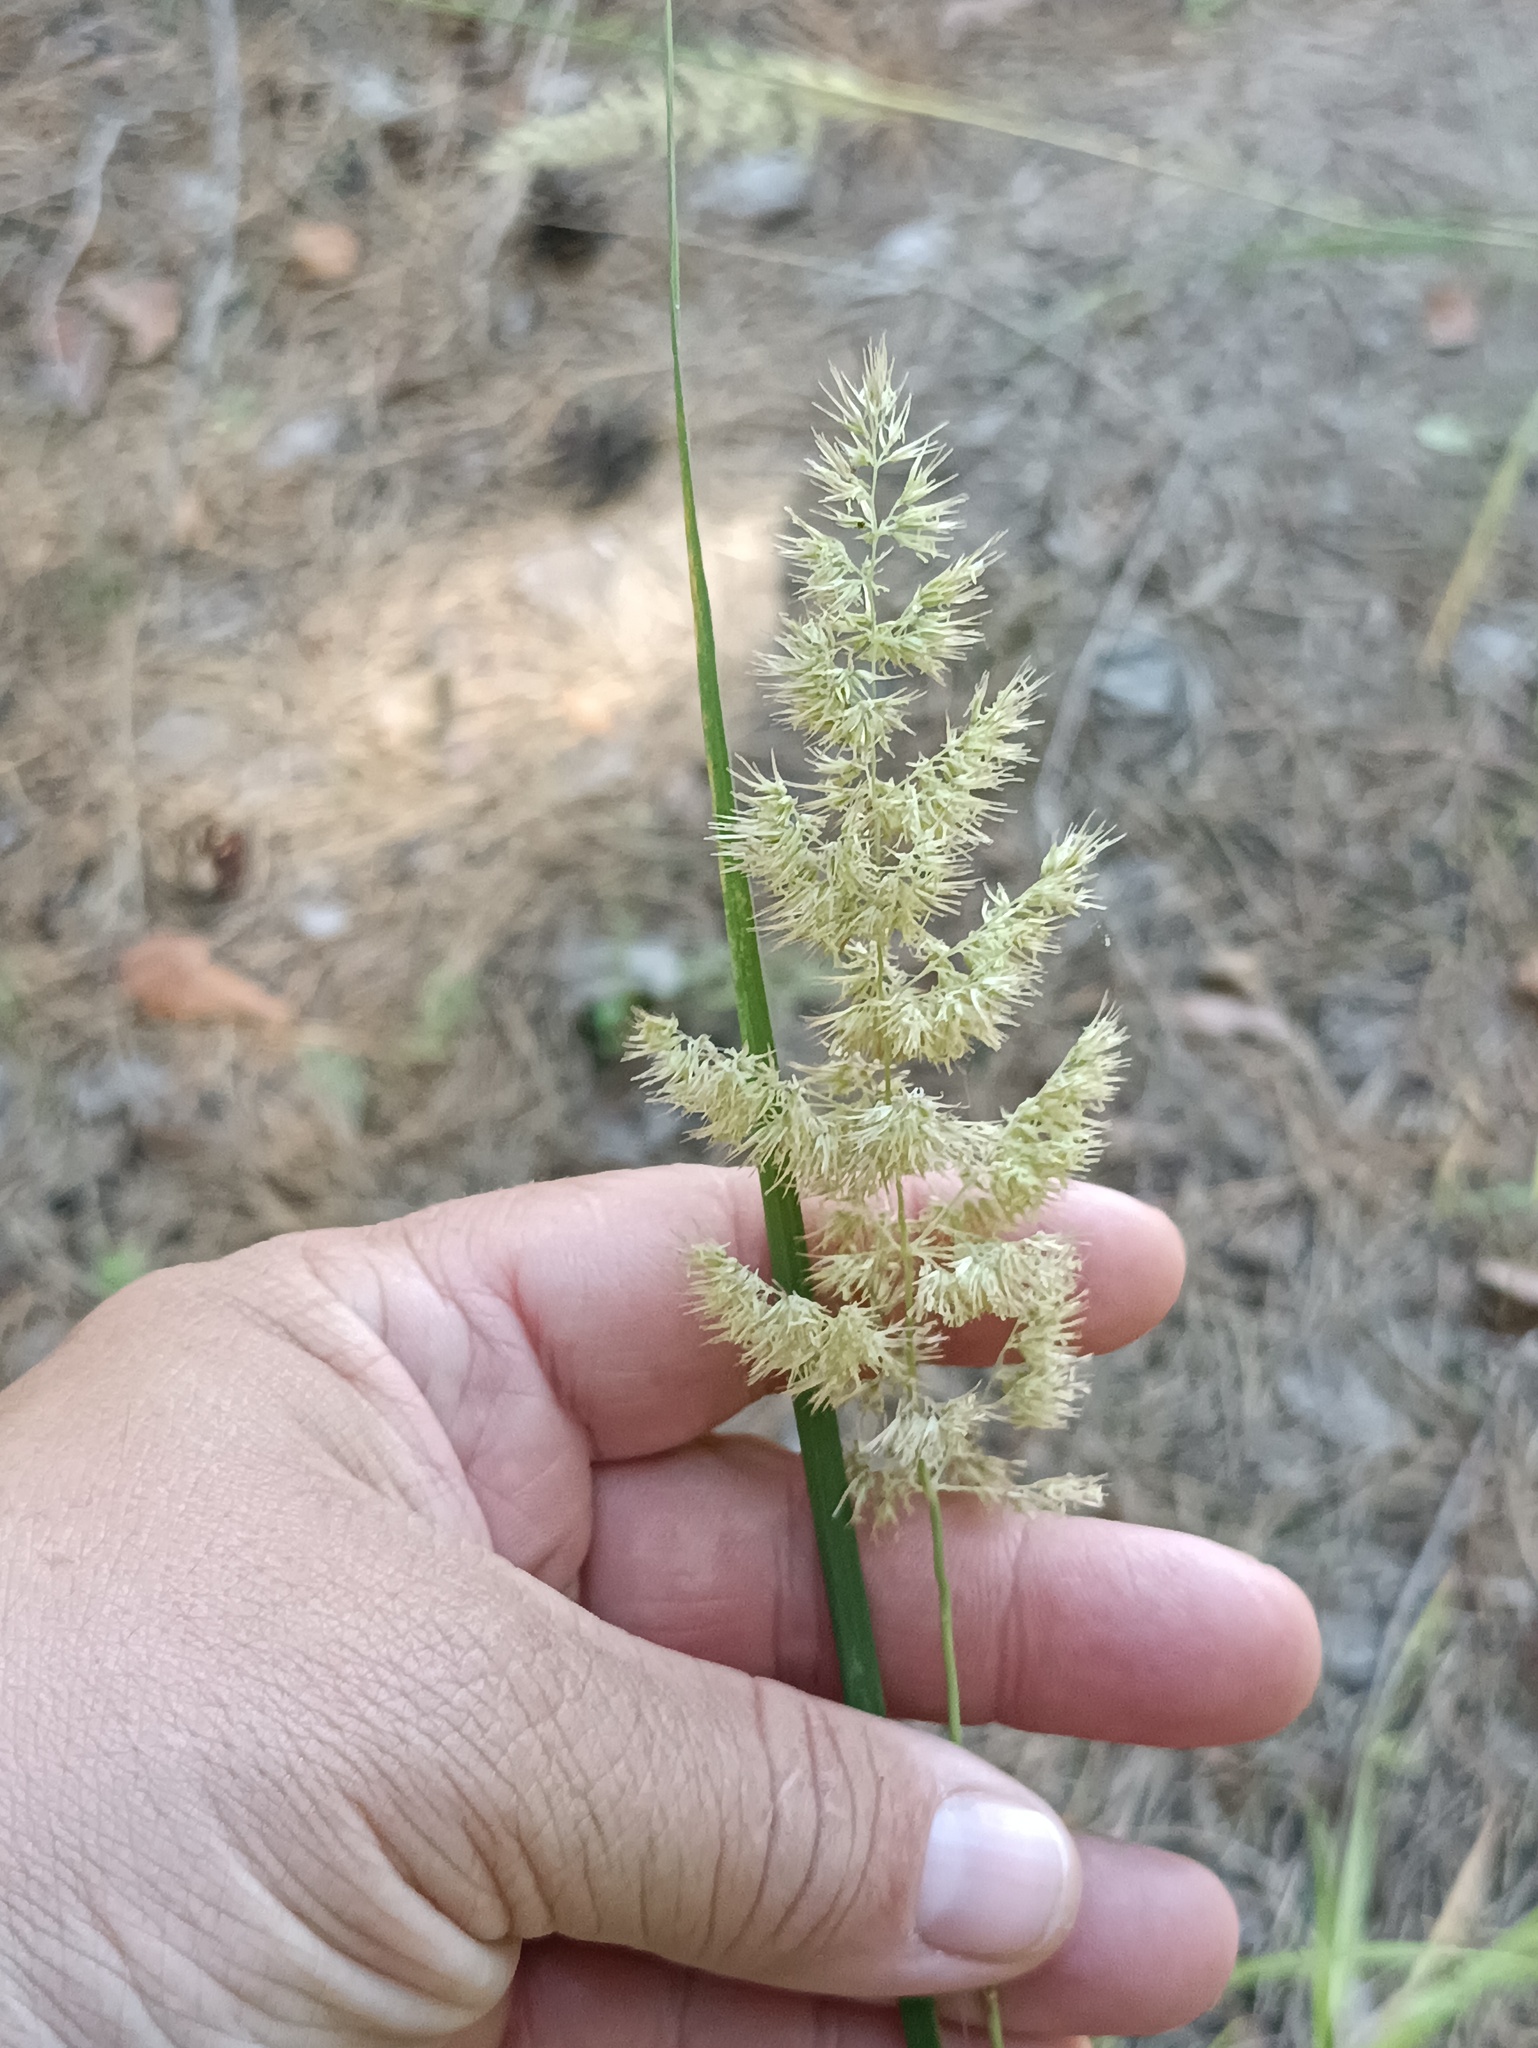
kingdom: Plantae
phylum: Tracheophyta
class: Liliopsida
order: Poales
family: Poaceae
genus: Calamagrostis
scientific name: Calamagrostis epigejos
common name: Wood small-reed
